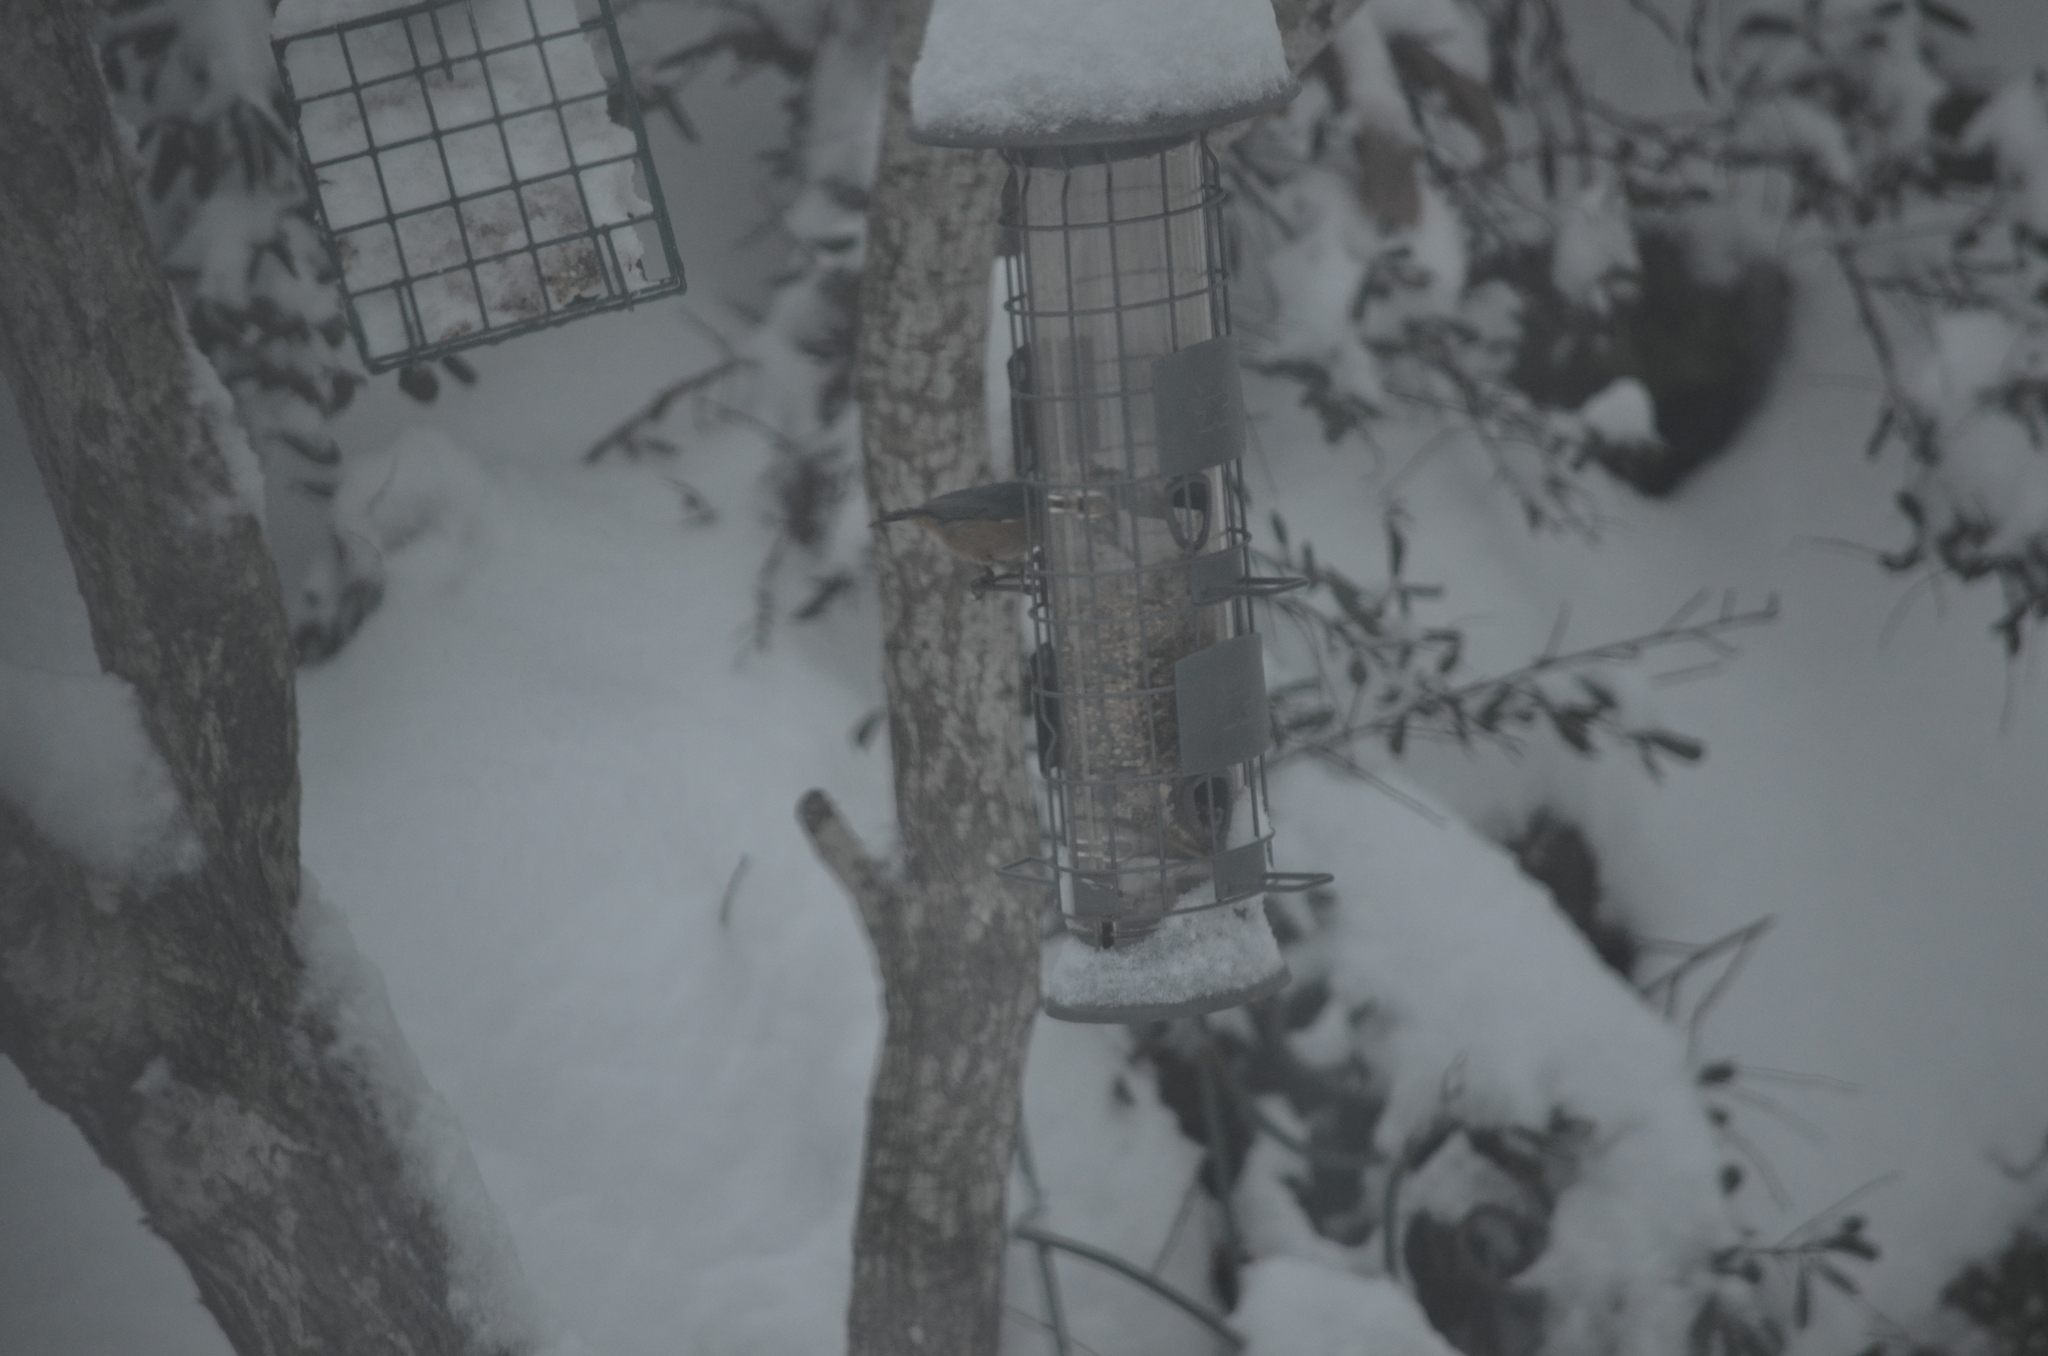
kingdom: Animalia
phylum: Chordata
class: Aves
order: Passeriformes
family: Sittidae
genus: Sitta
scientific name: Sitta canadensis
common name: Red-breasted nuthatch
